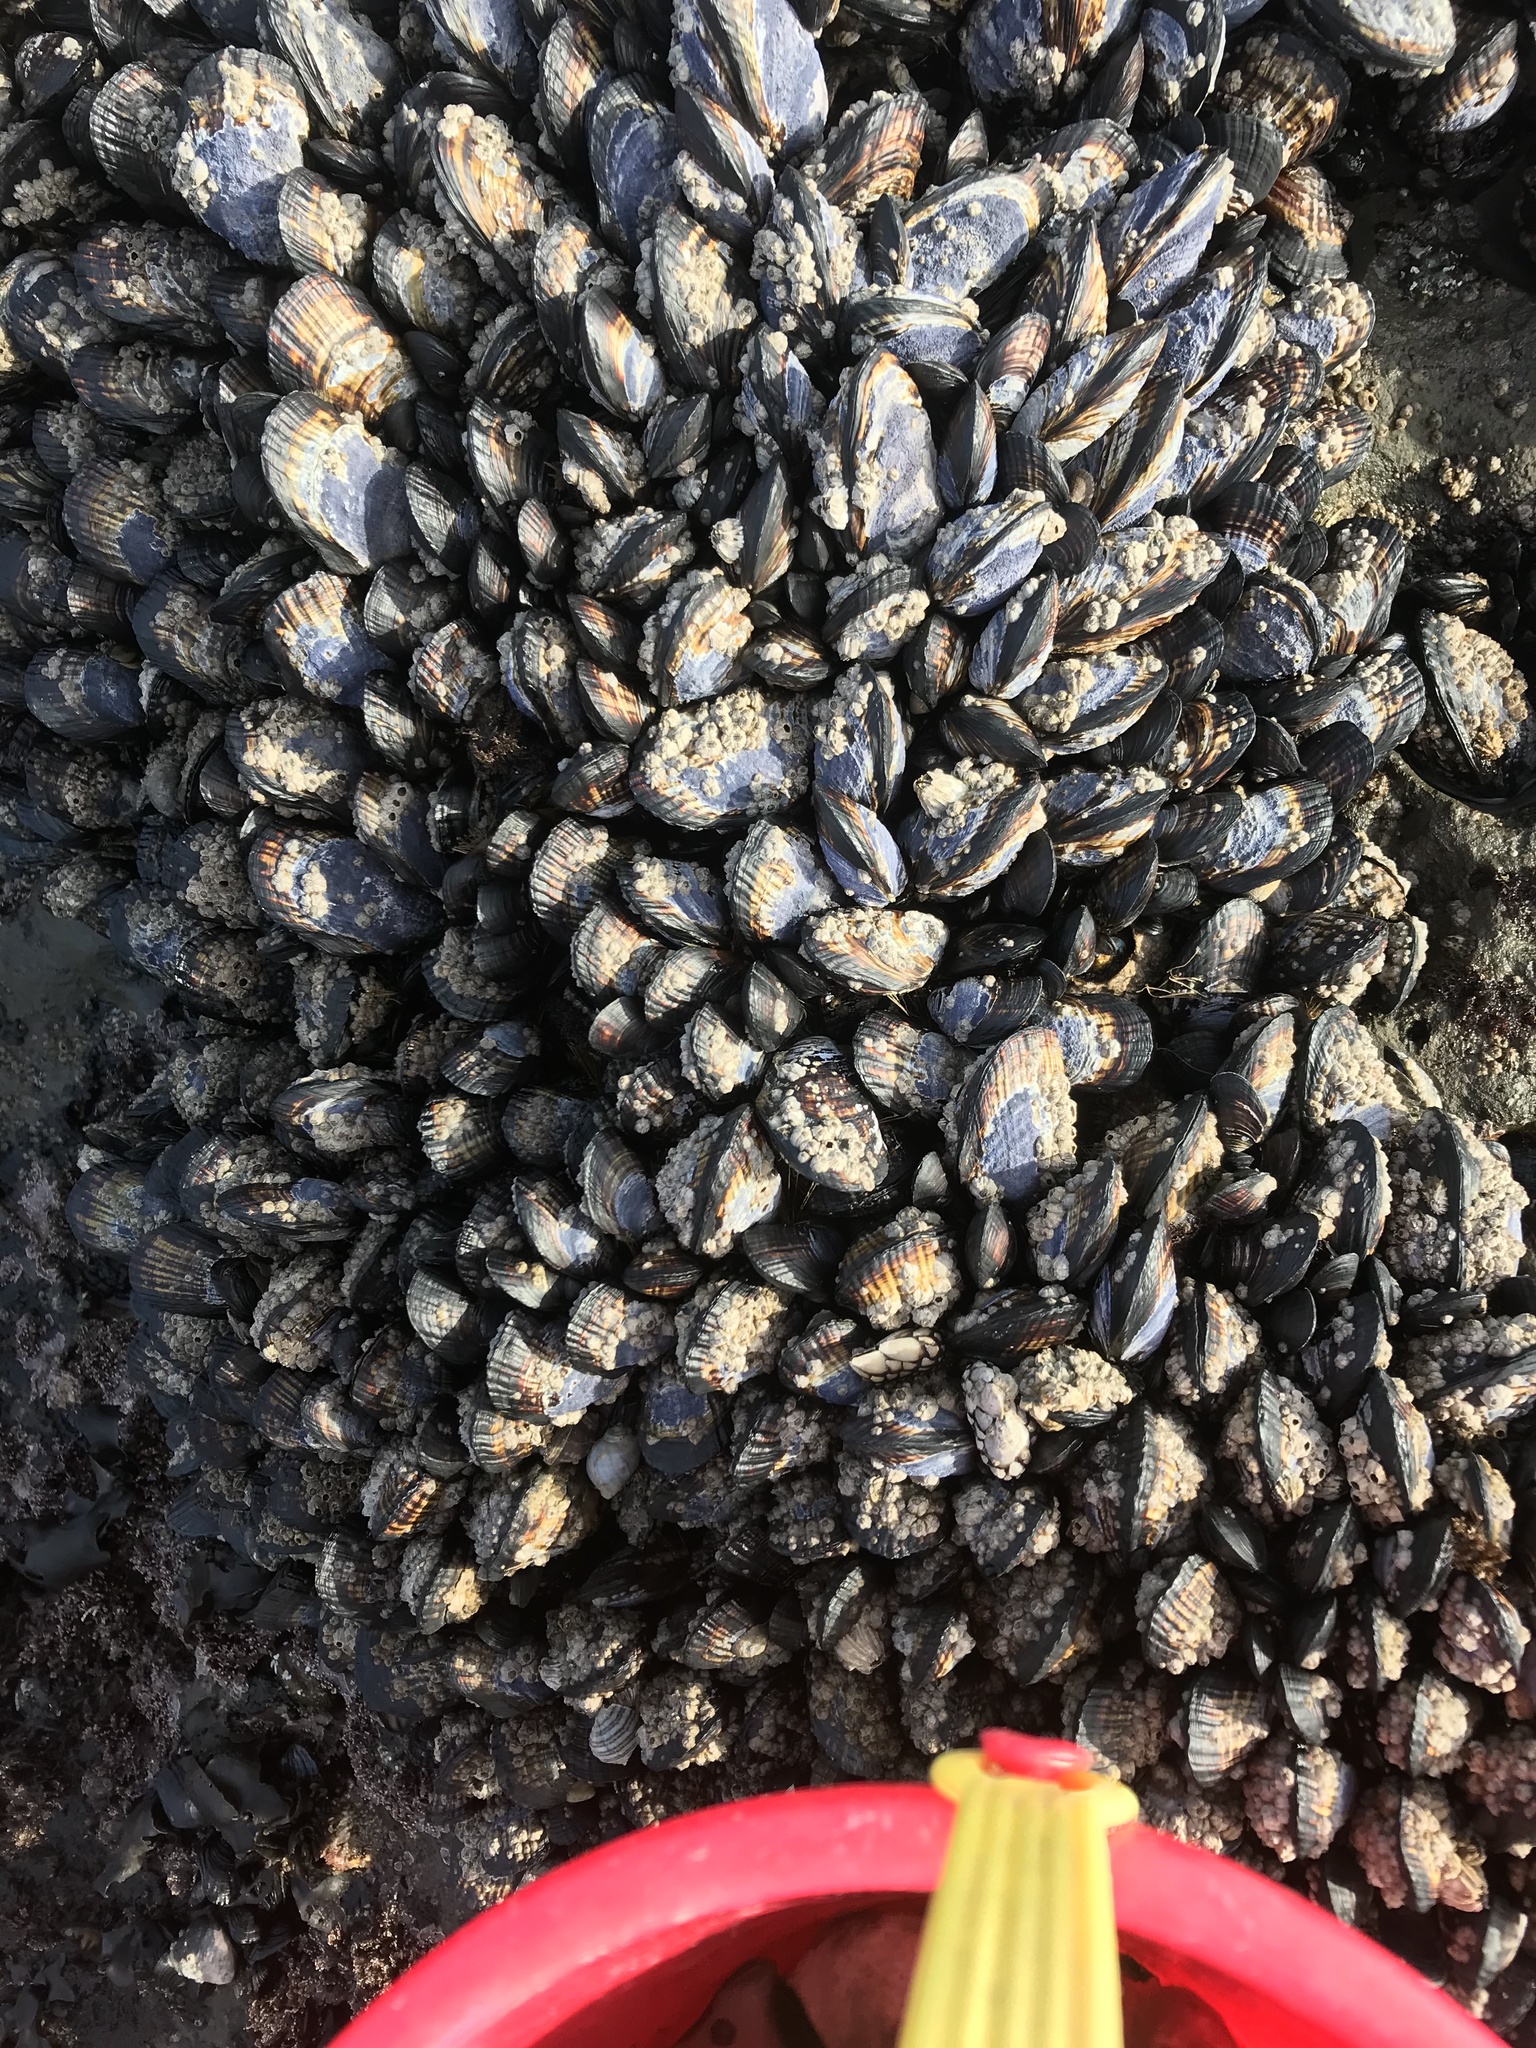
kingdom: Animalia
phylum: Mollusca
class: Bivalvia
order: Mytilida
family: Mytilidae
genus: Mytilus
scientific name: Mytilus californianus
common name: California mussel
